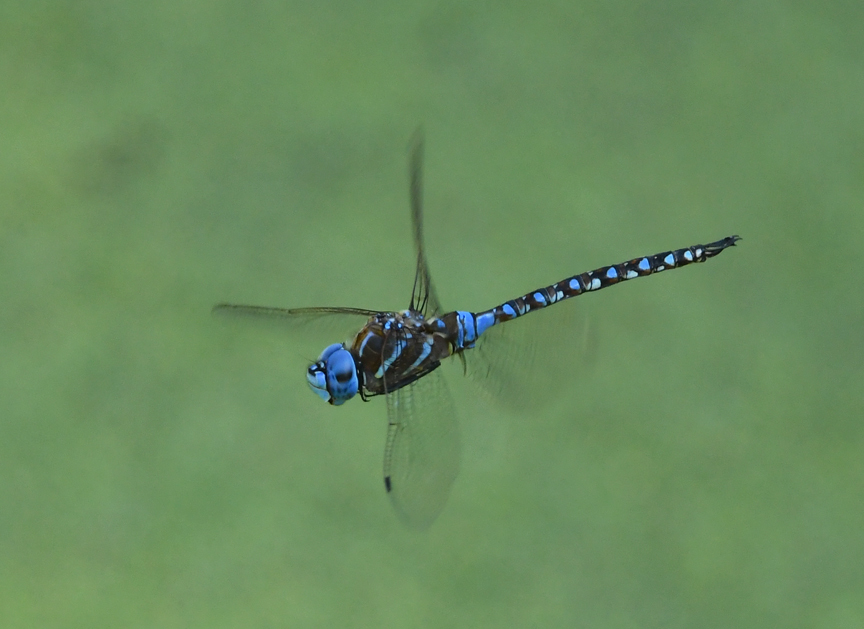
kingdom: Animalia
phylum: Arthropoda
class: Insecta
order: Odonata
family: Aeshnidae
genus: Rhionaeschna
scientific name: Rhionaeschna multicolor
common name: Blue-eyed darner
